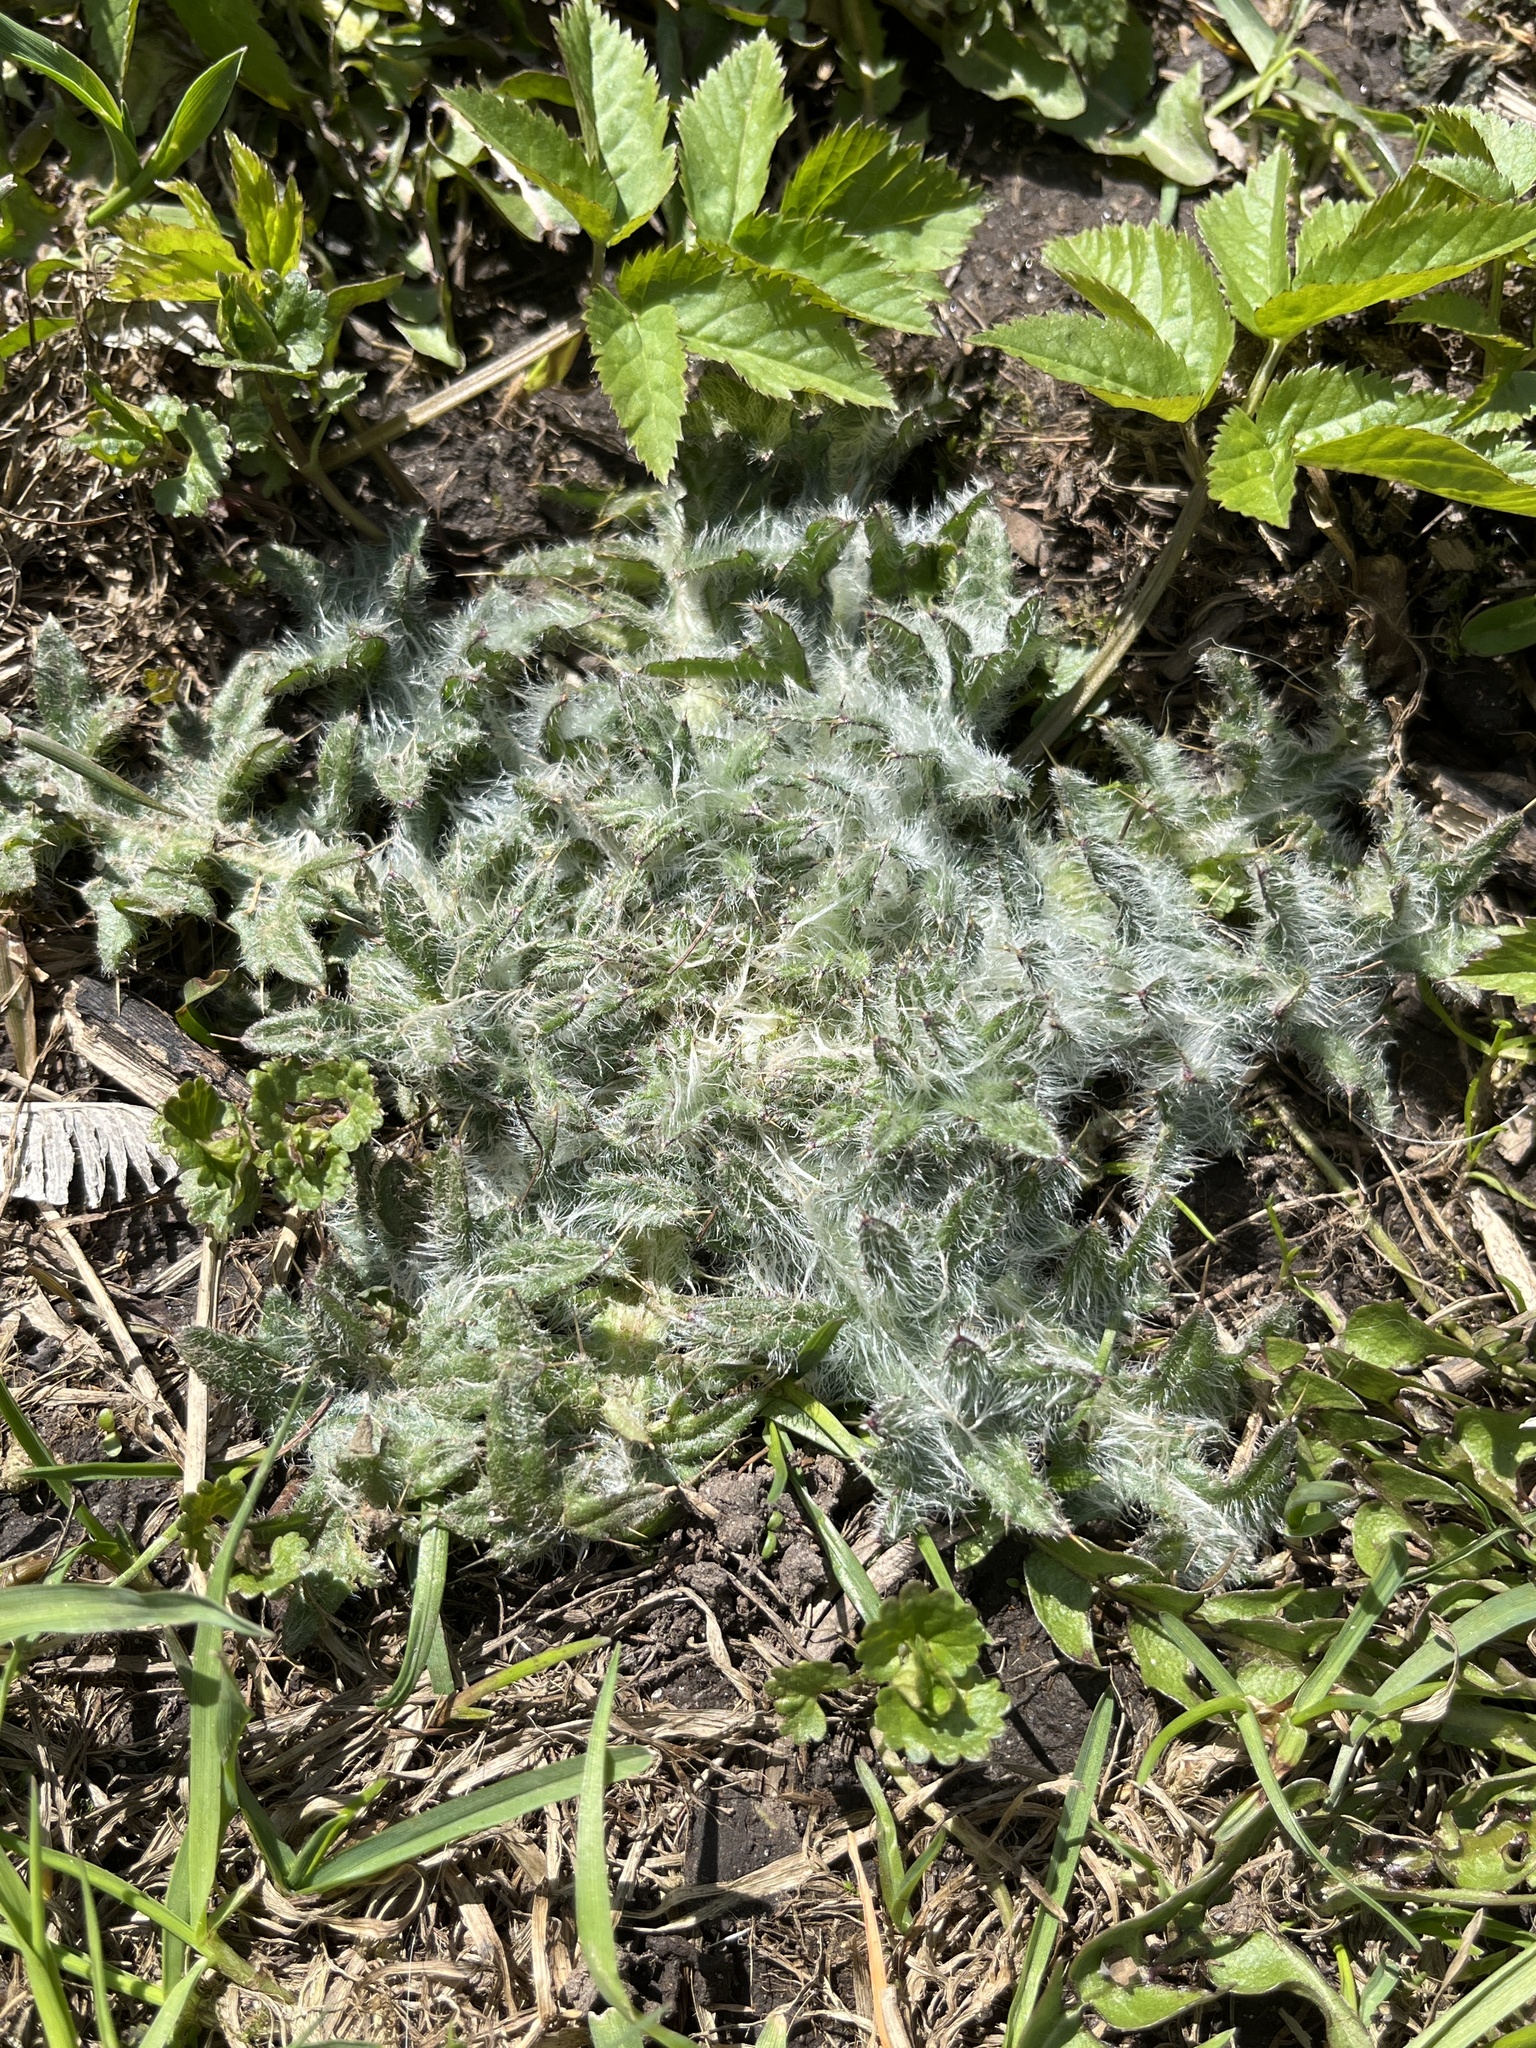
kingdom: Plantae
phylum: Tracheophyta
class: Magnoliopsida
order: Asterales
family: Asteraceae
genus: Cirsium
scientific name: Cirsium vulgare
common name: Bull thistle
